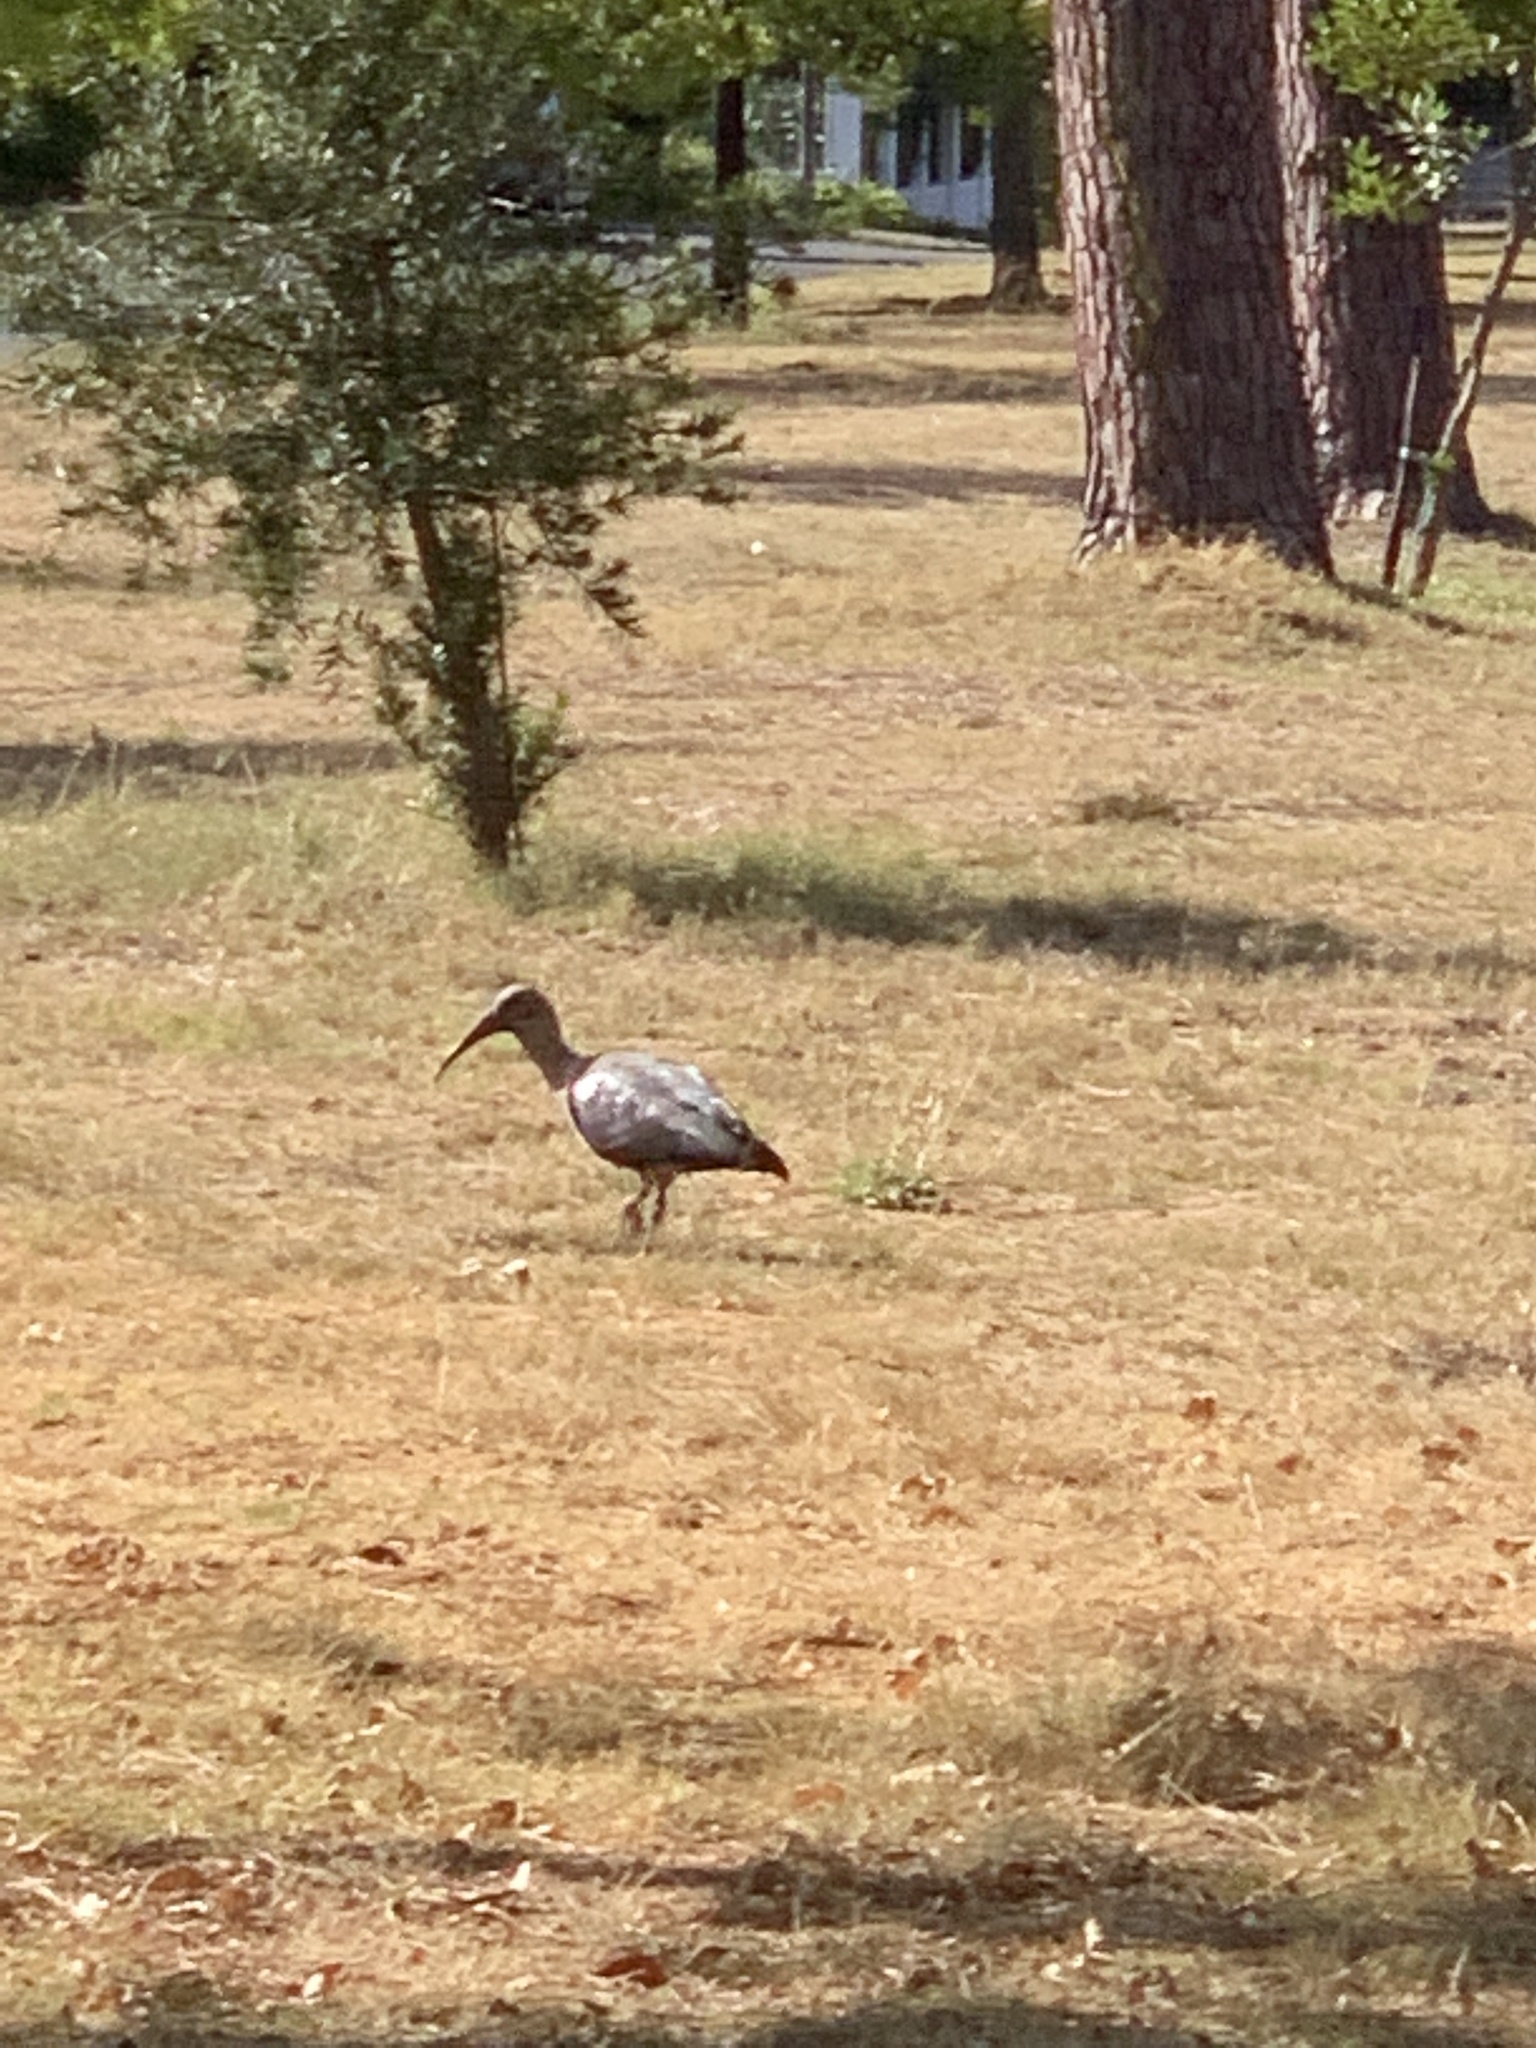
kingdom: Animalia
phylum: Chordata
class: Aves
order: Pelecaniformes
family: Threskiornithidae
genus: Bostrychia
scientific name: Bostrychia hagedash
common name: Hadada ibis
